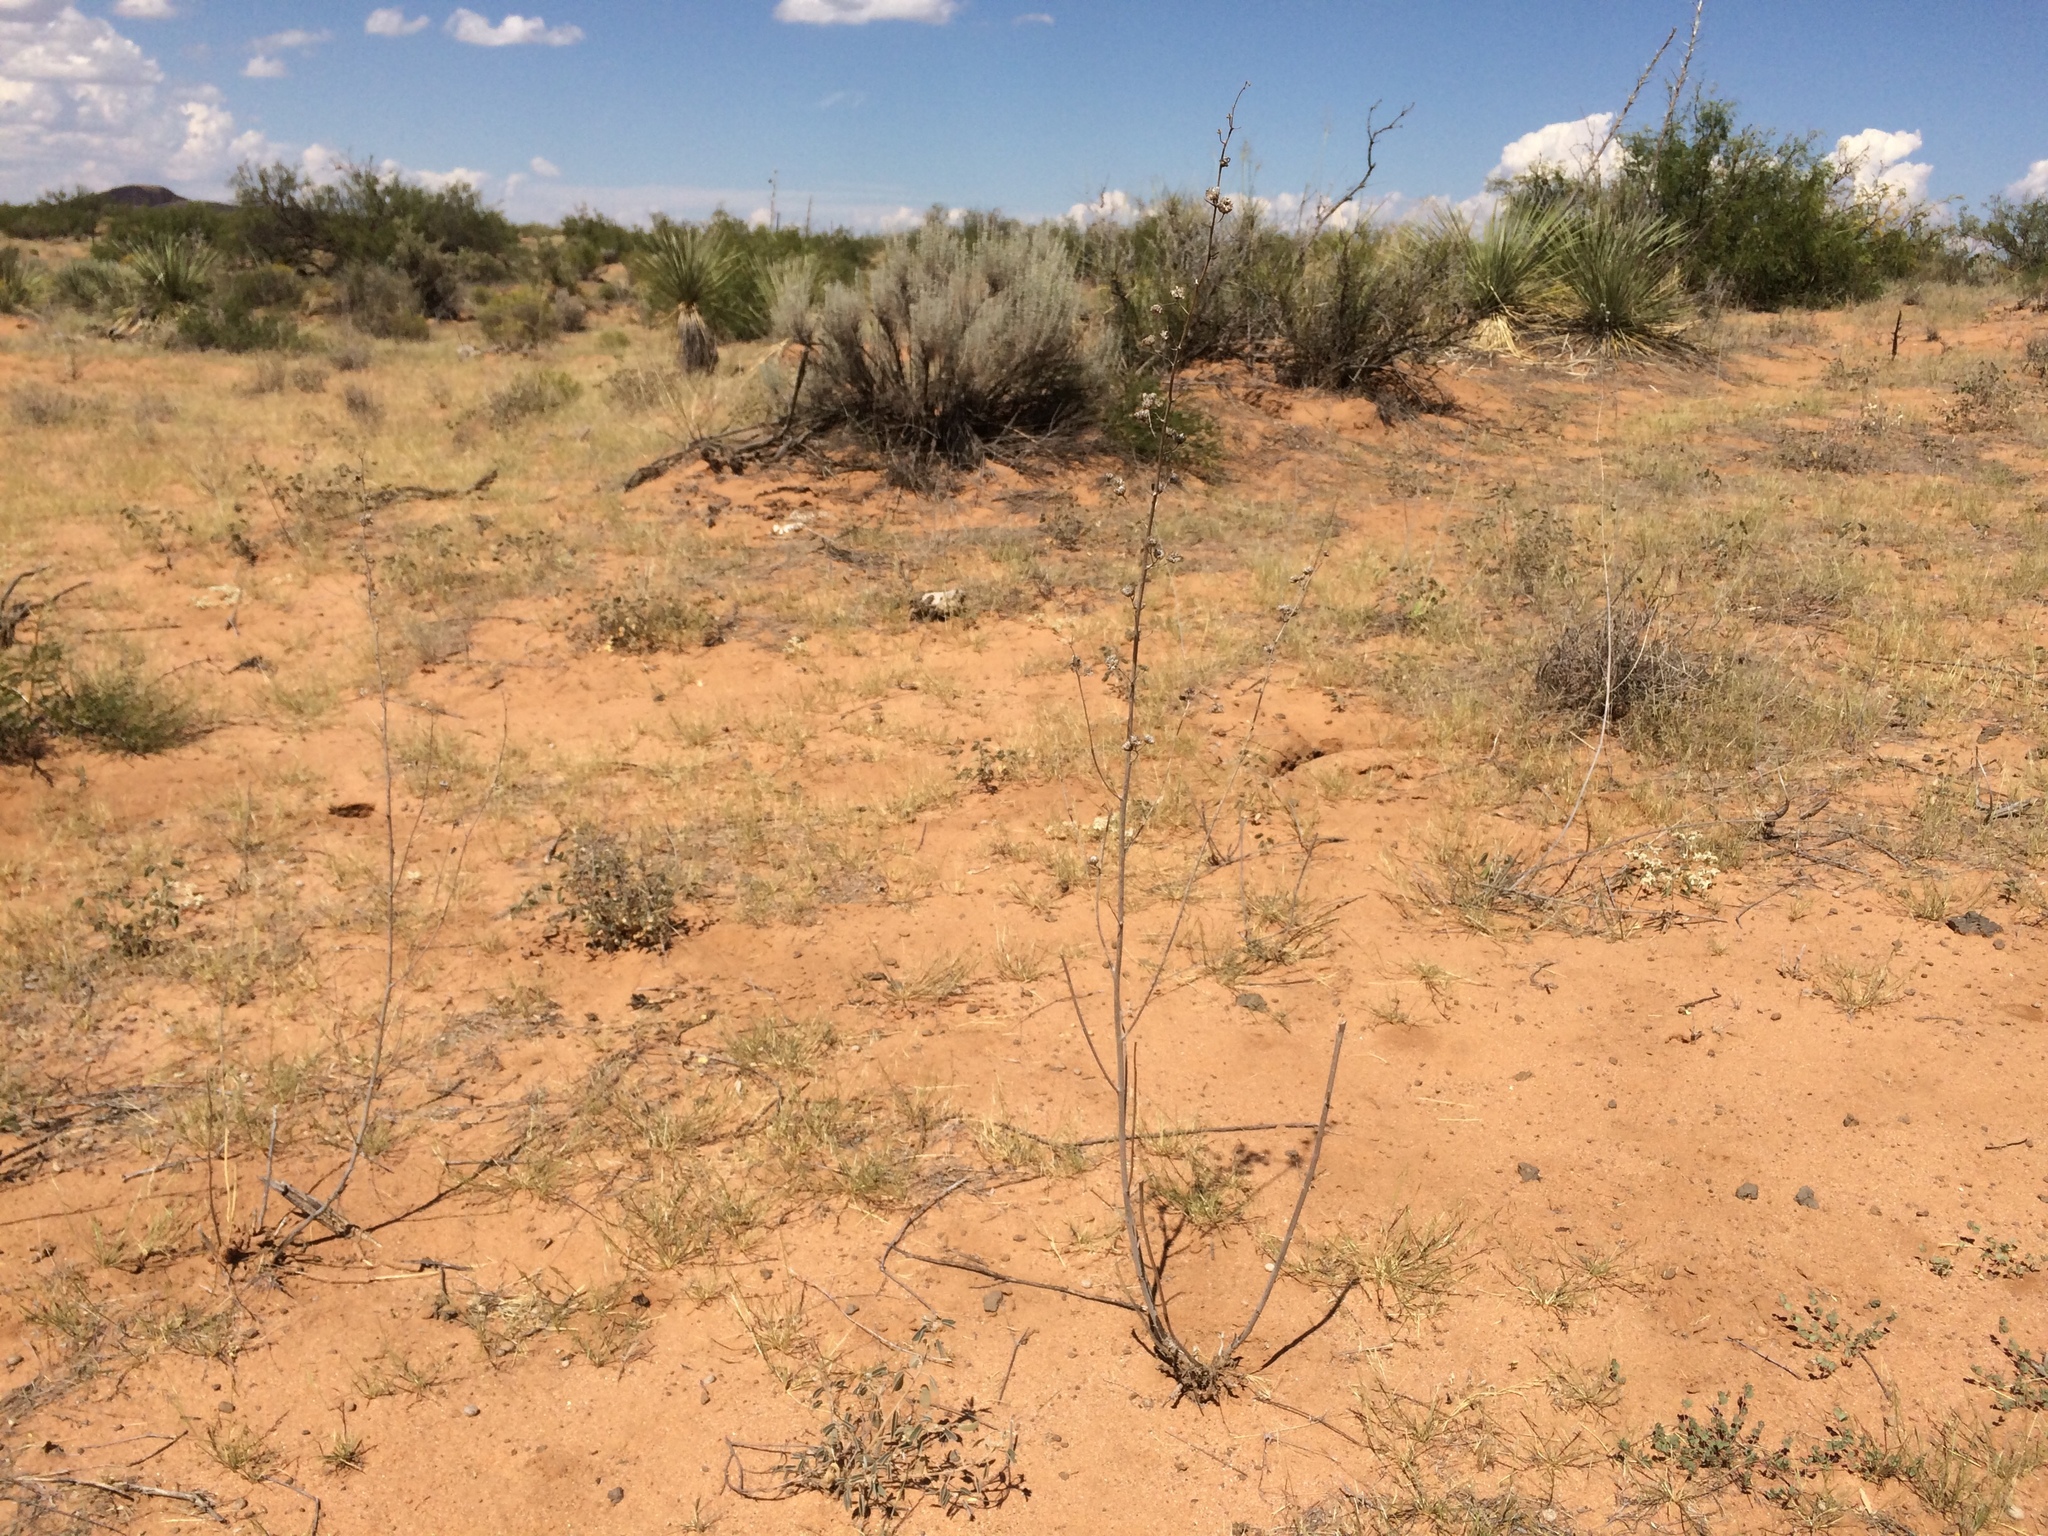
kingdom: Plantae
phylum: Tracheophyta
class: Magnoliopsida
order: Malvales
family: Malvaceae
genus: Sphaeralcea
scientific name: Sphaeralcea emoryi
